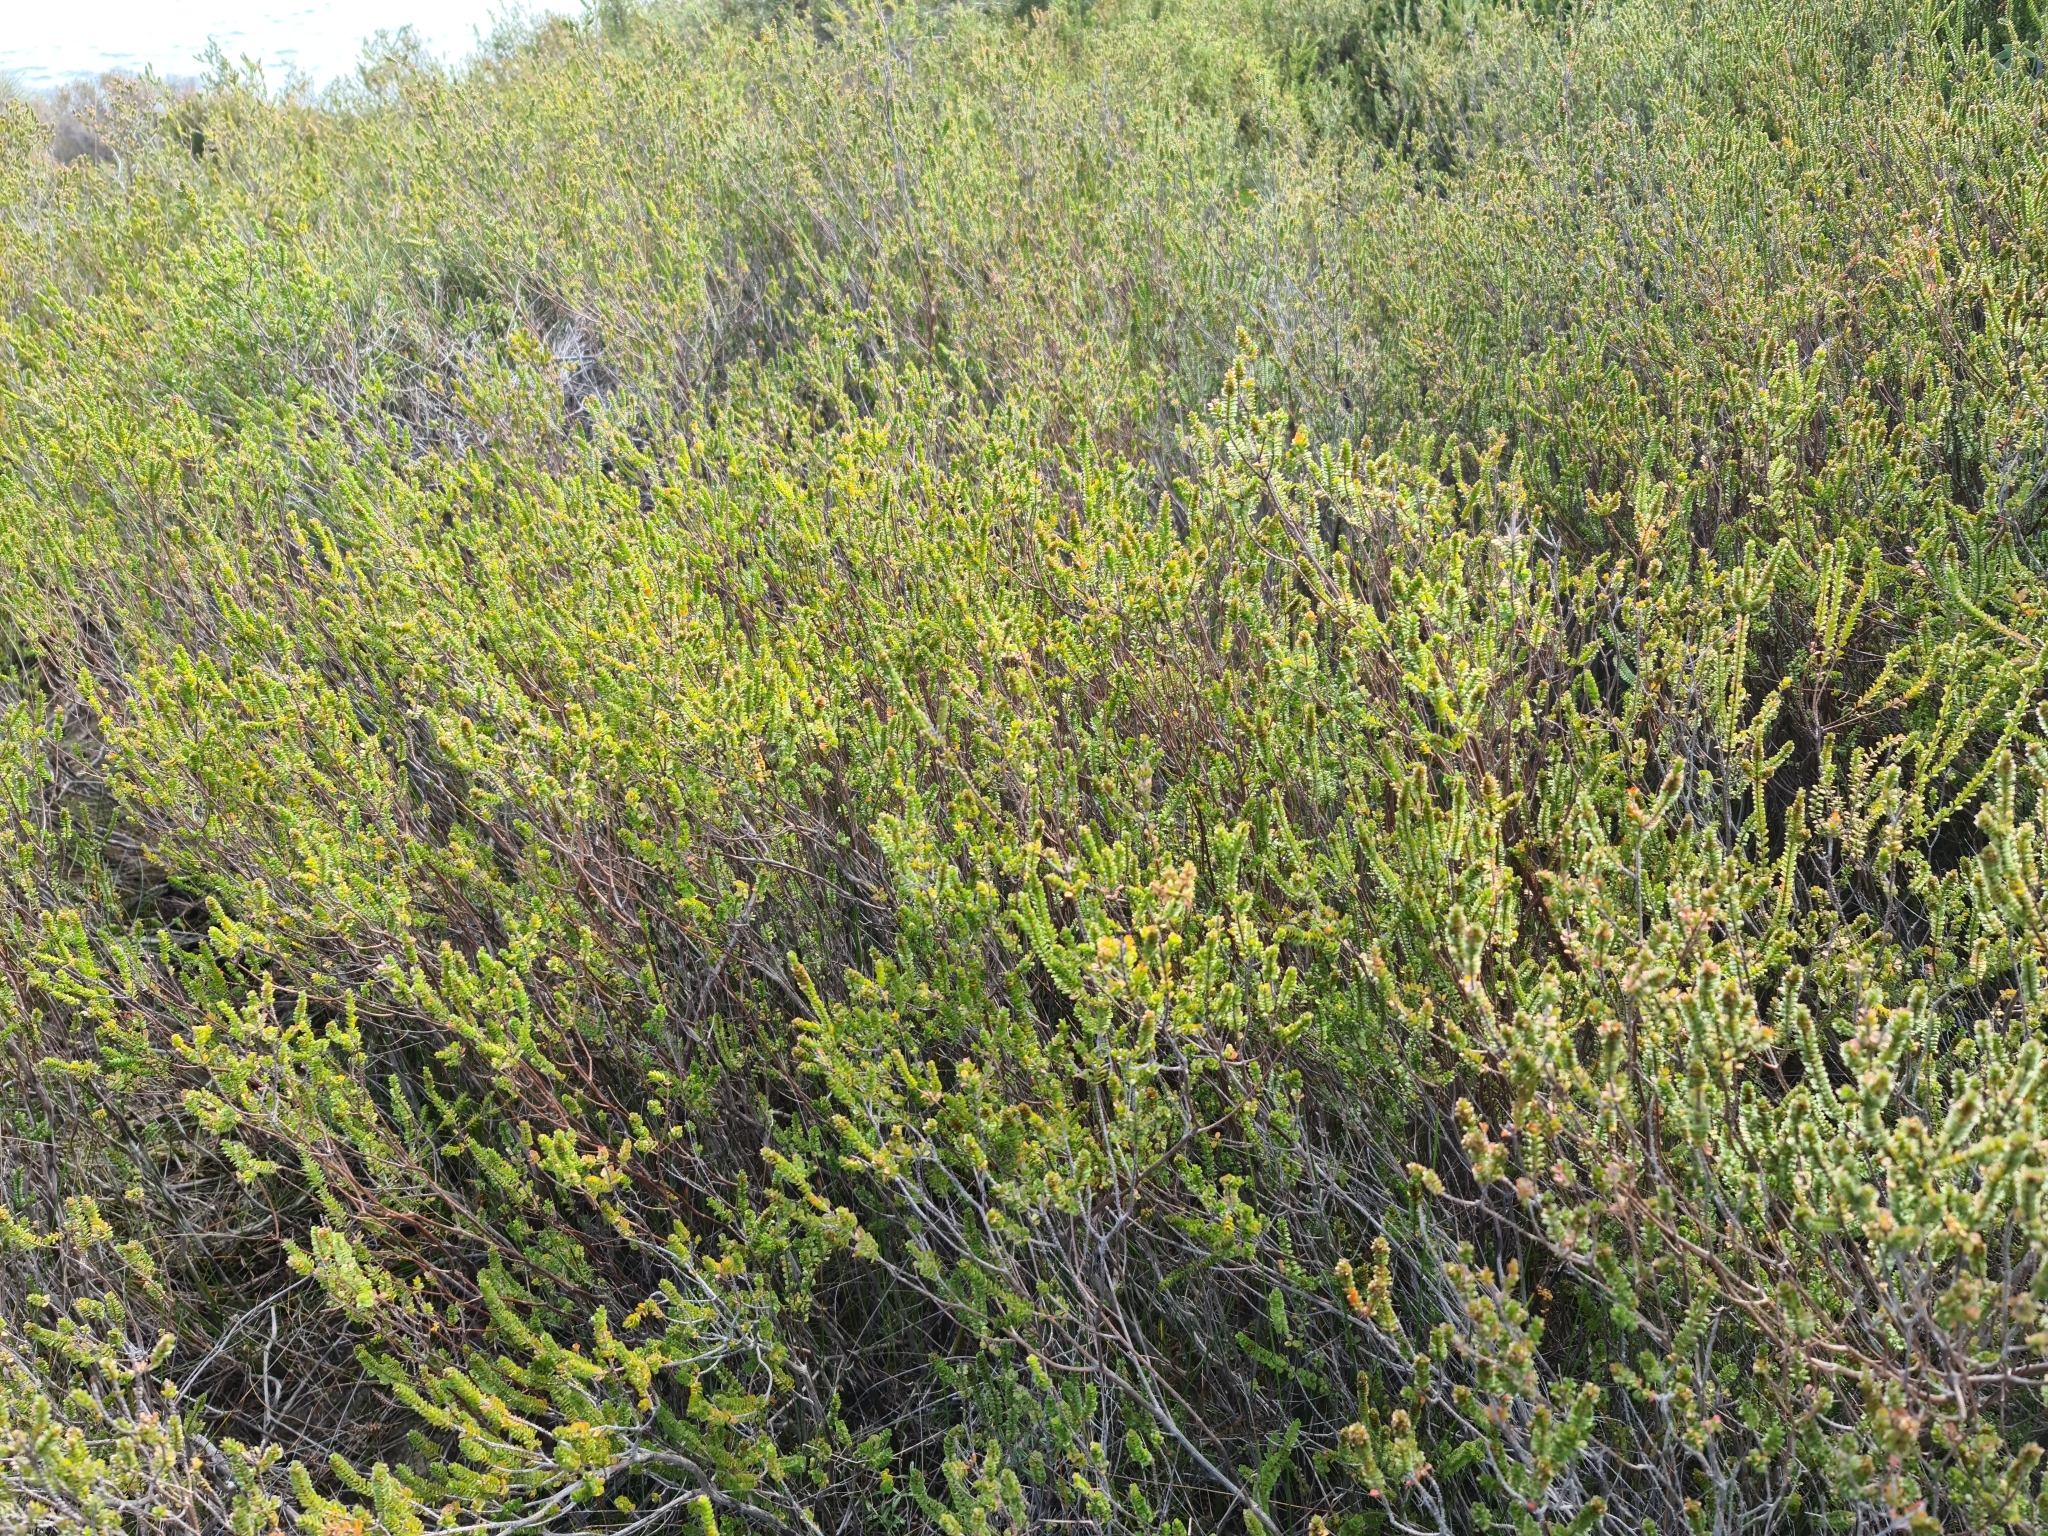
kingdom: Plantae
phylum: Tracheophyta
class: Magnoliopsida
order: Myrtales
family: Myrtaceae
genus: Baeckea
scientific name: Baeckea imbricata
